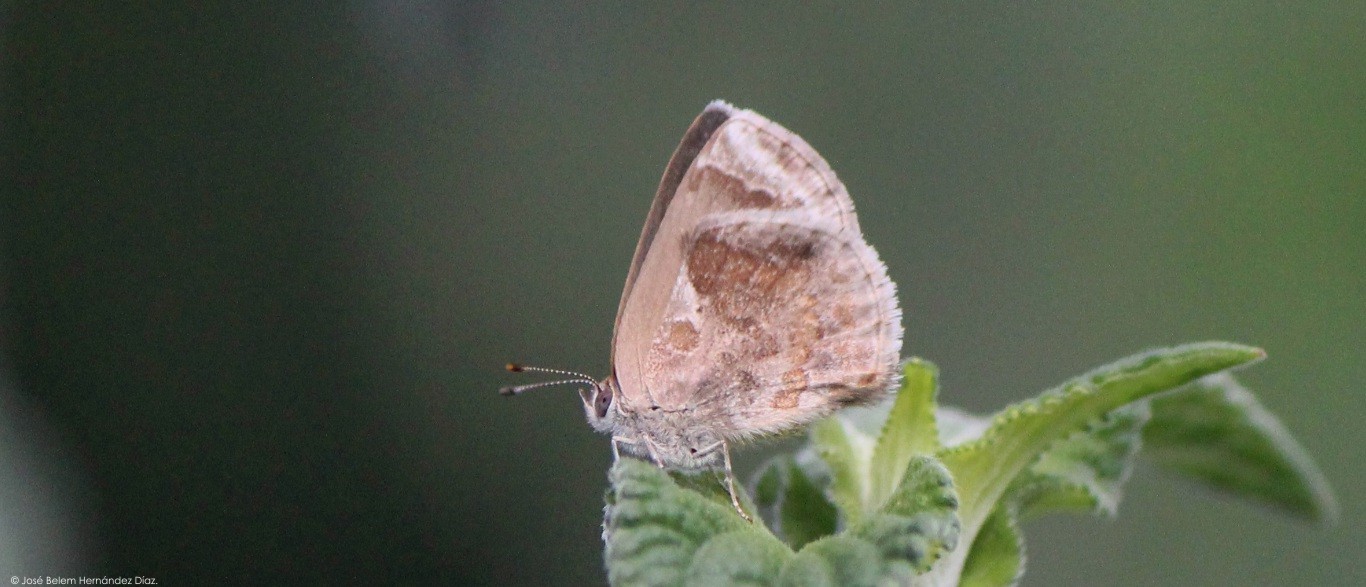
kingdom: Animalia
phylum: Arthropoda
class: Insecta
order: Lepidoptera
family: Lycaenidae
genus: Strymon
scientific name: Strymon bazochii
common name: Lantana scrub-hairstreak
